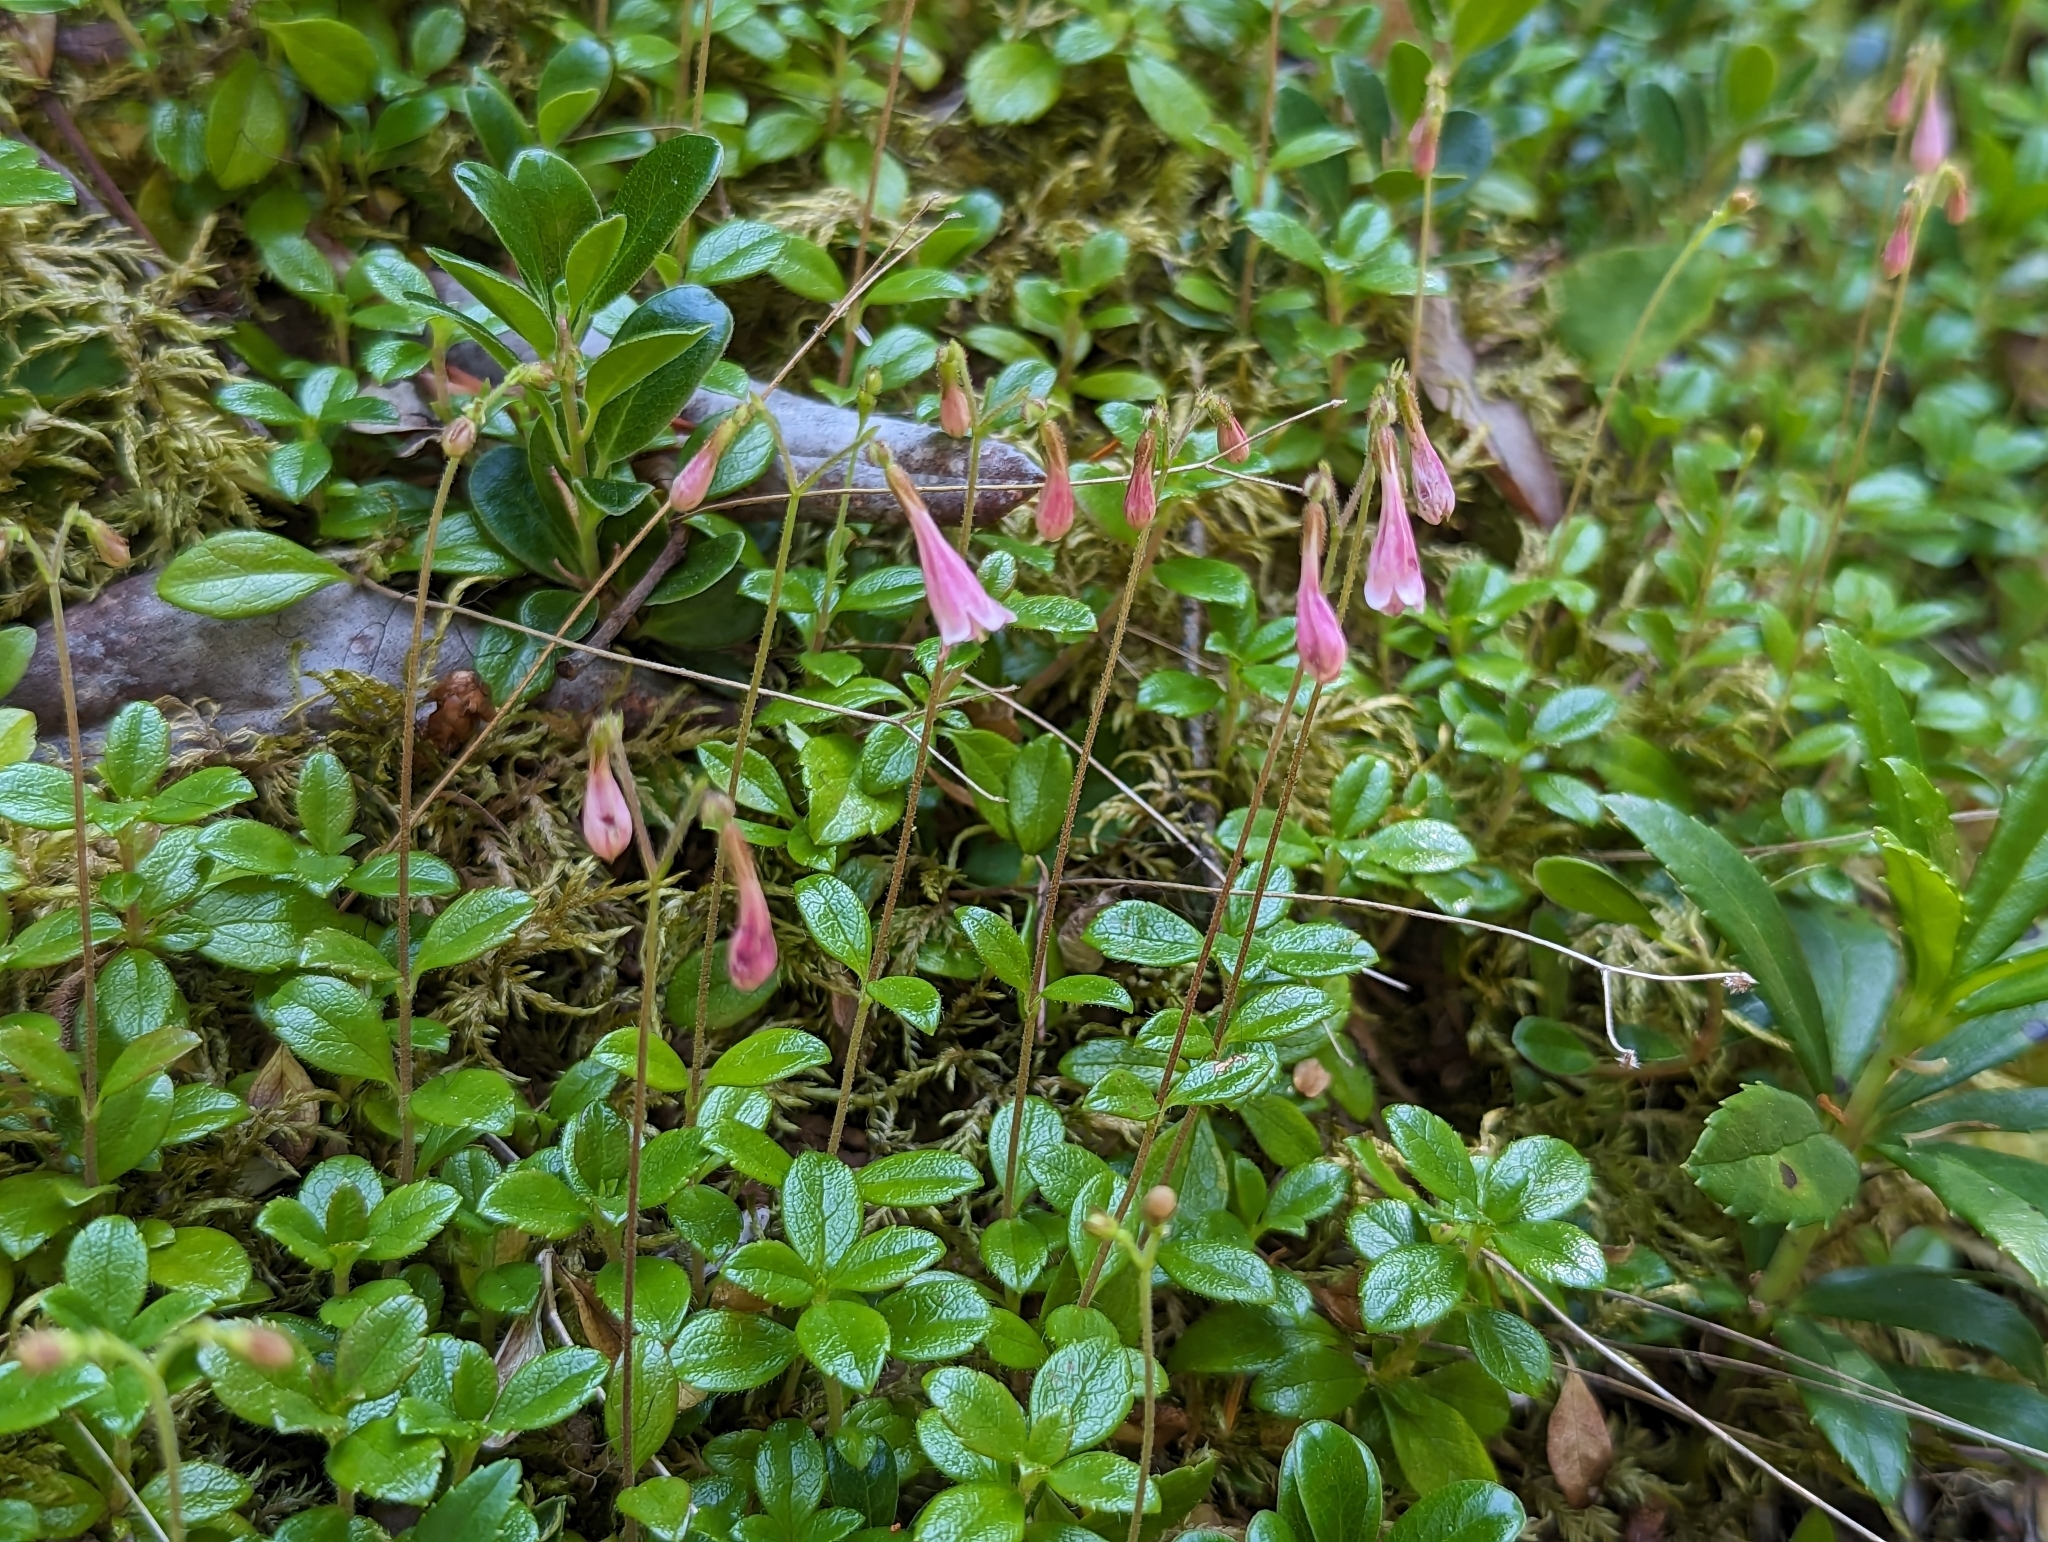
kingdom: Plantae
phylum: Tracheophyta
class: Magnoliopsida
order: Dipsacales
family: Caprifoliaceae
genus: Linnaea
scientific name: Linnaea borealis
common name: Twinflower
